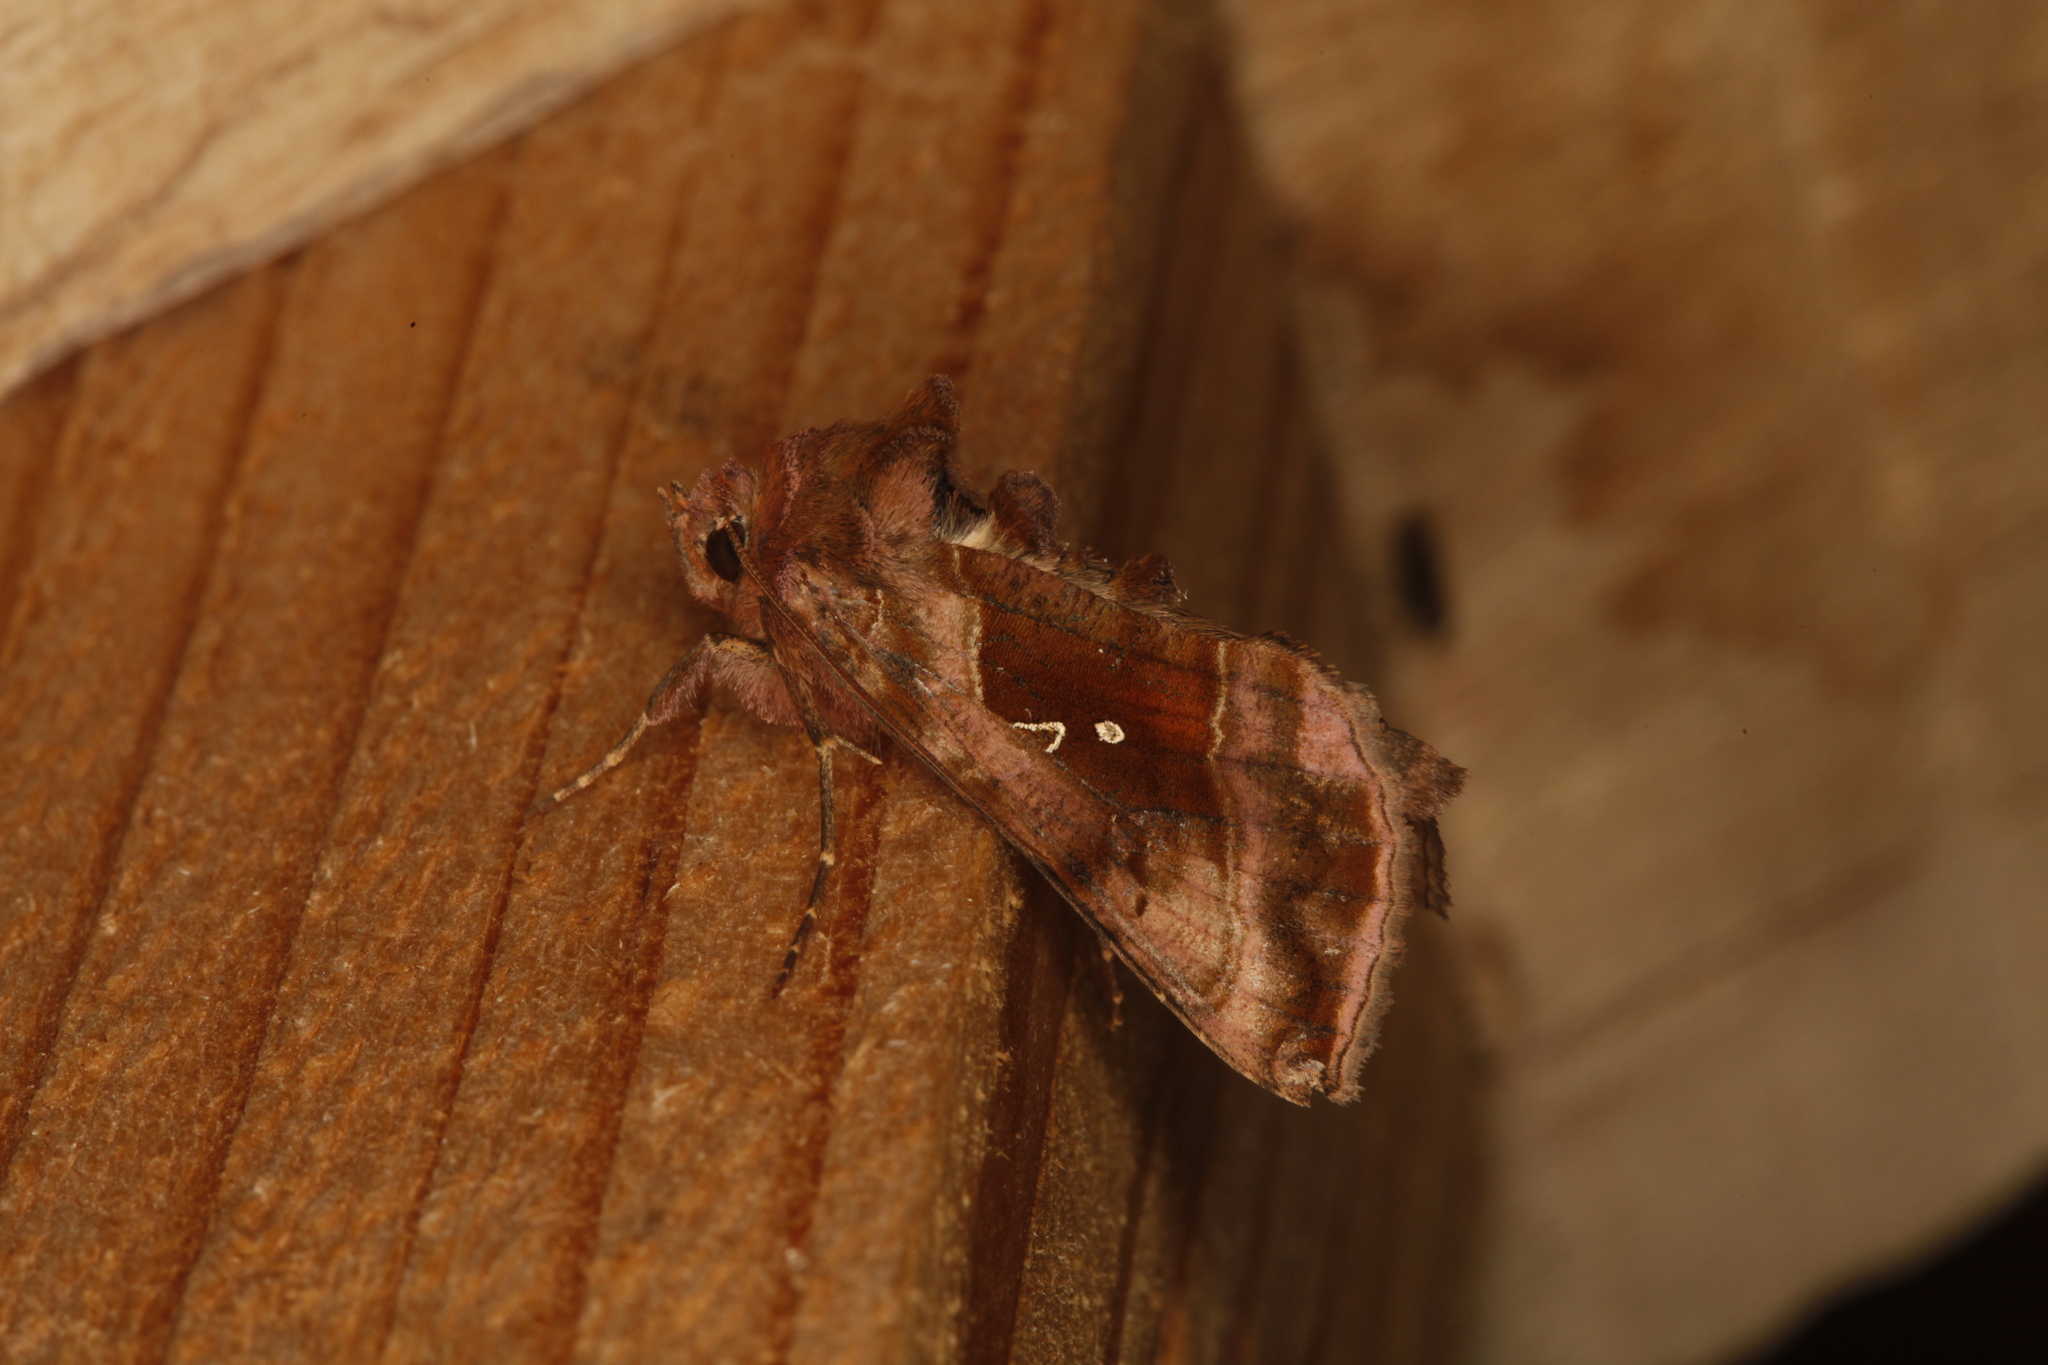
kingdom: Animalia
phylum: Arthropoda
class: Insecta
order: Lepidoptera
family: Noctuidae
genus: Autographa
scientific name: Autographa jota
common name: Plain golden y
